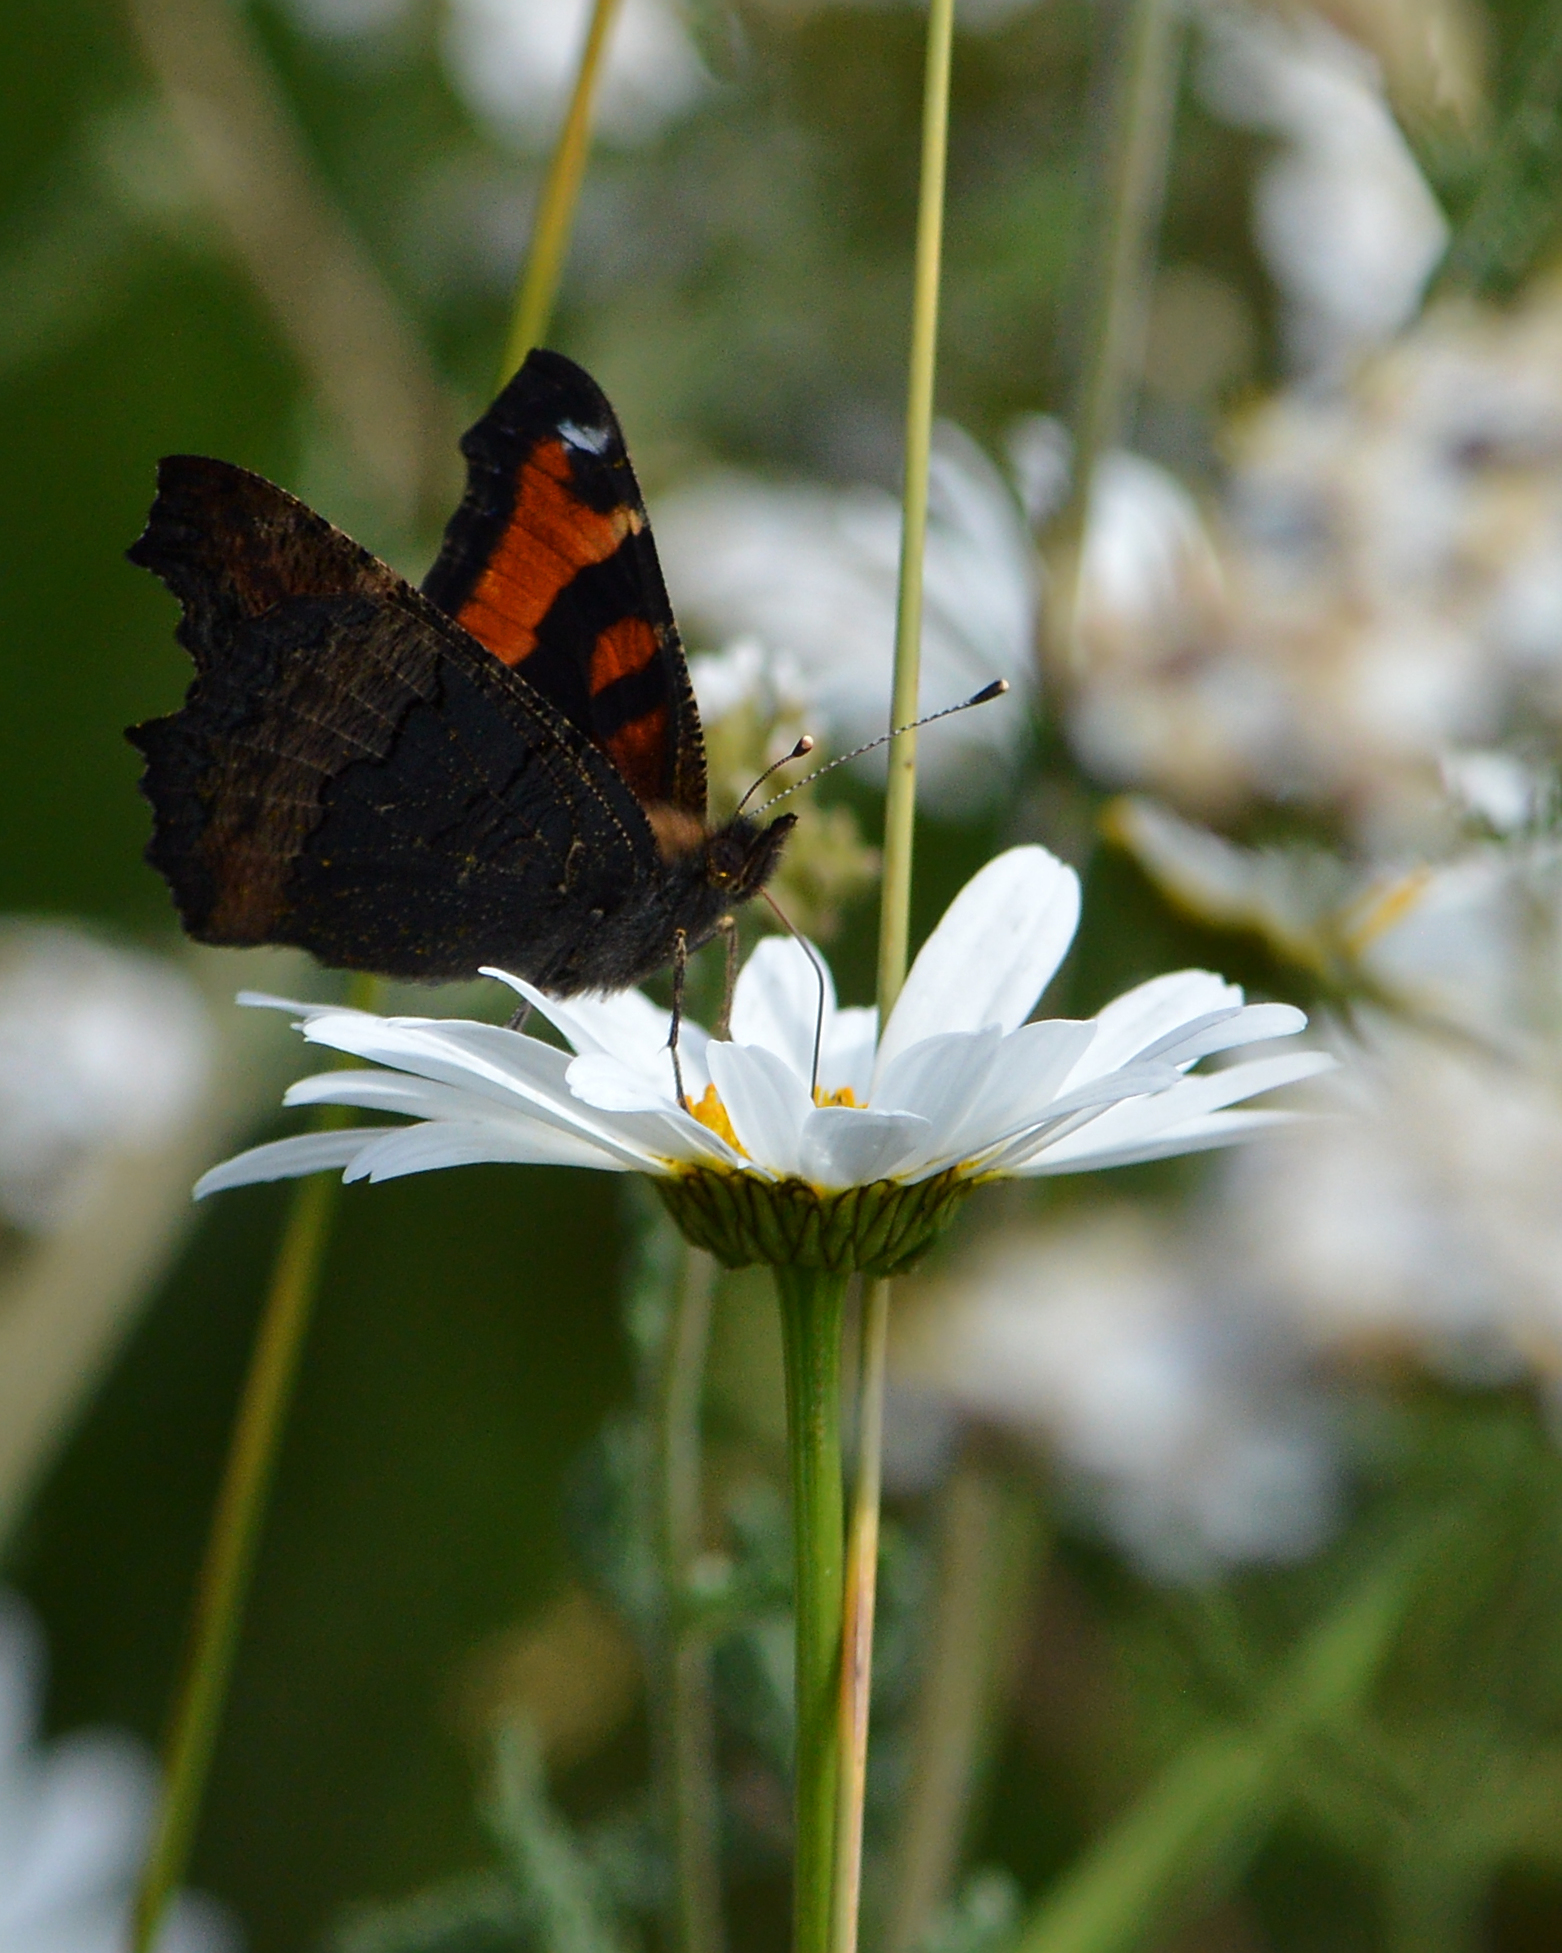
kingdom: Animalia
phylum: Arthropoda
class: Insecta
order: Lepidoptera
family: Nymphalidae
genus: Aglais
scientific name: Aglais milberti
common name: Milbert's tortoiseshell
